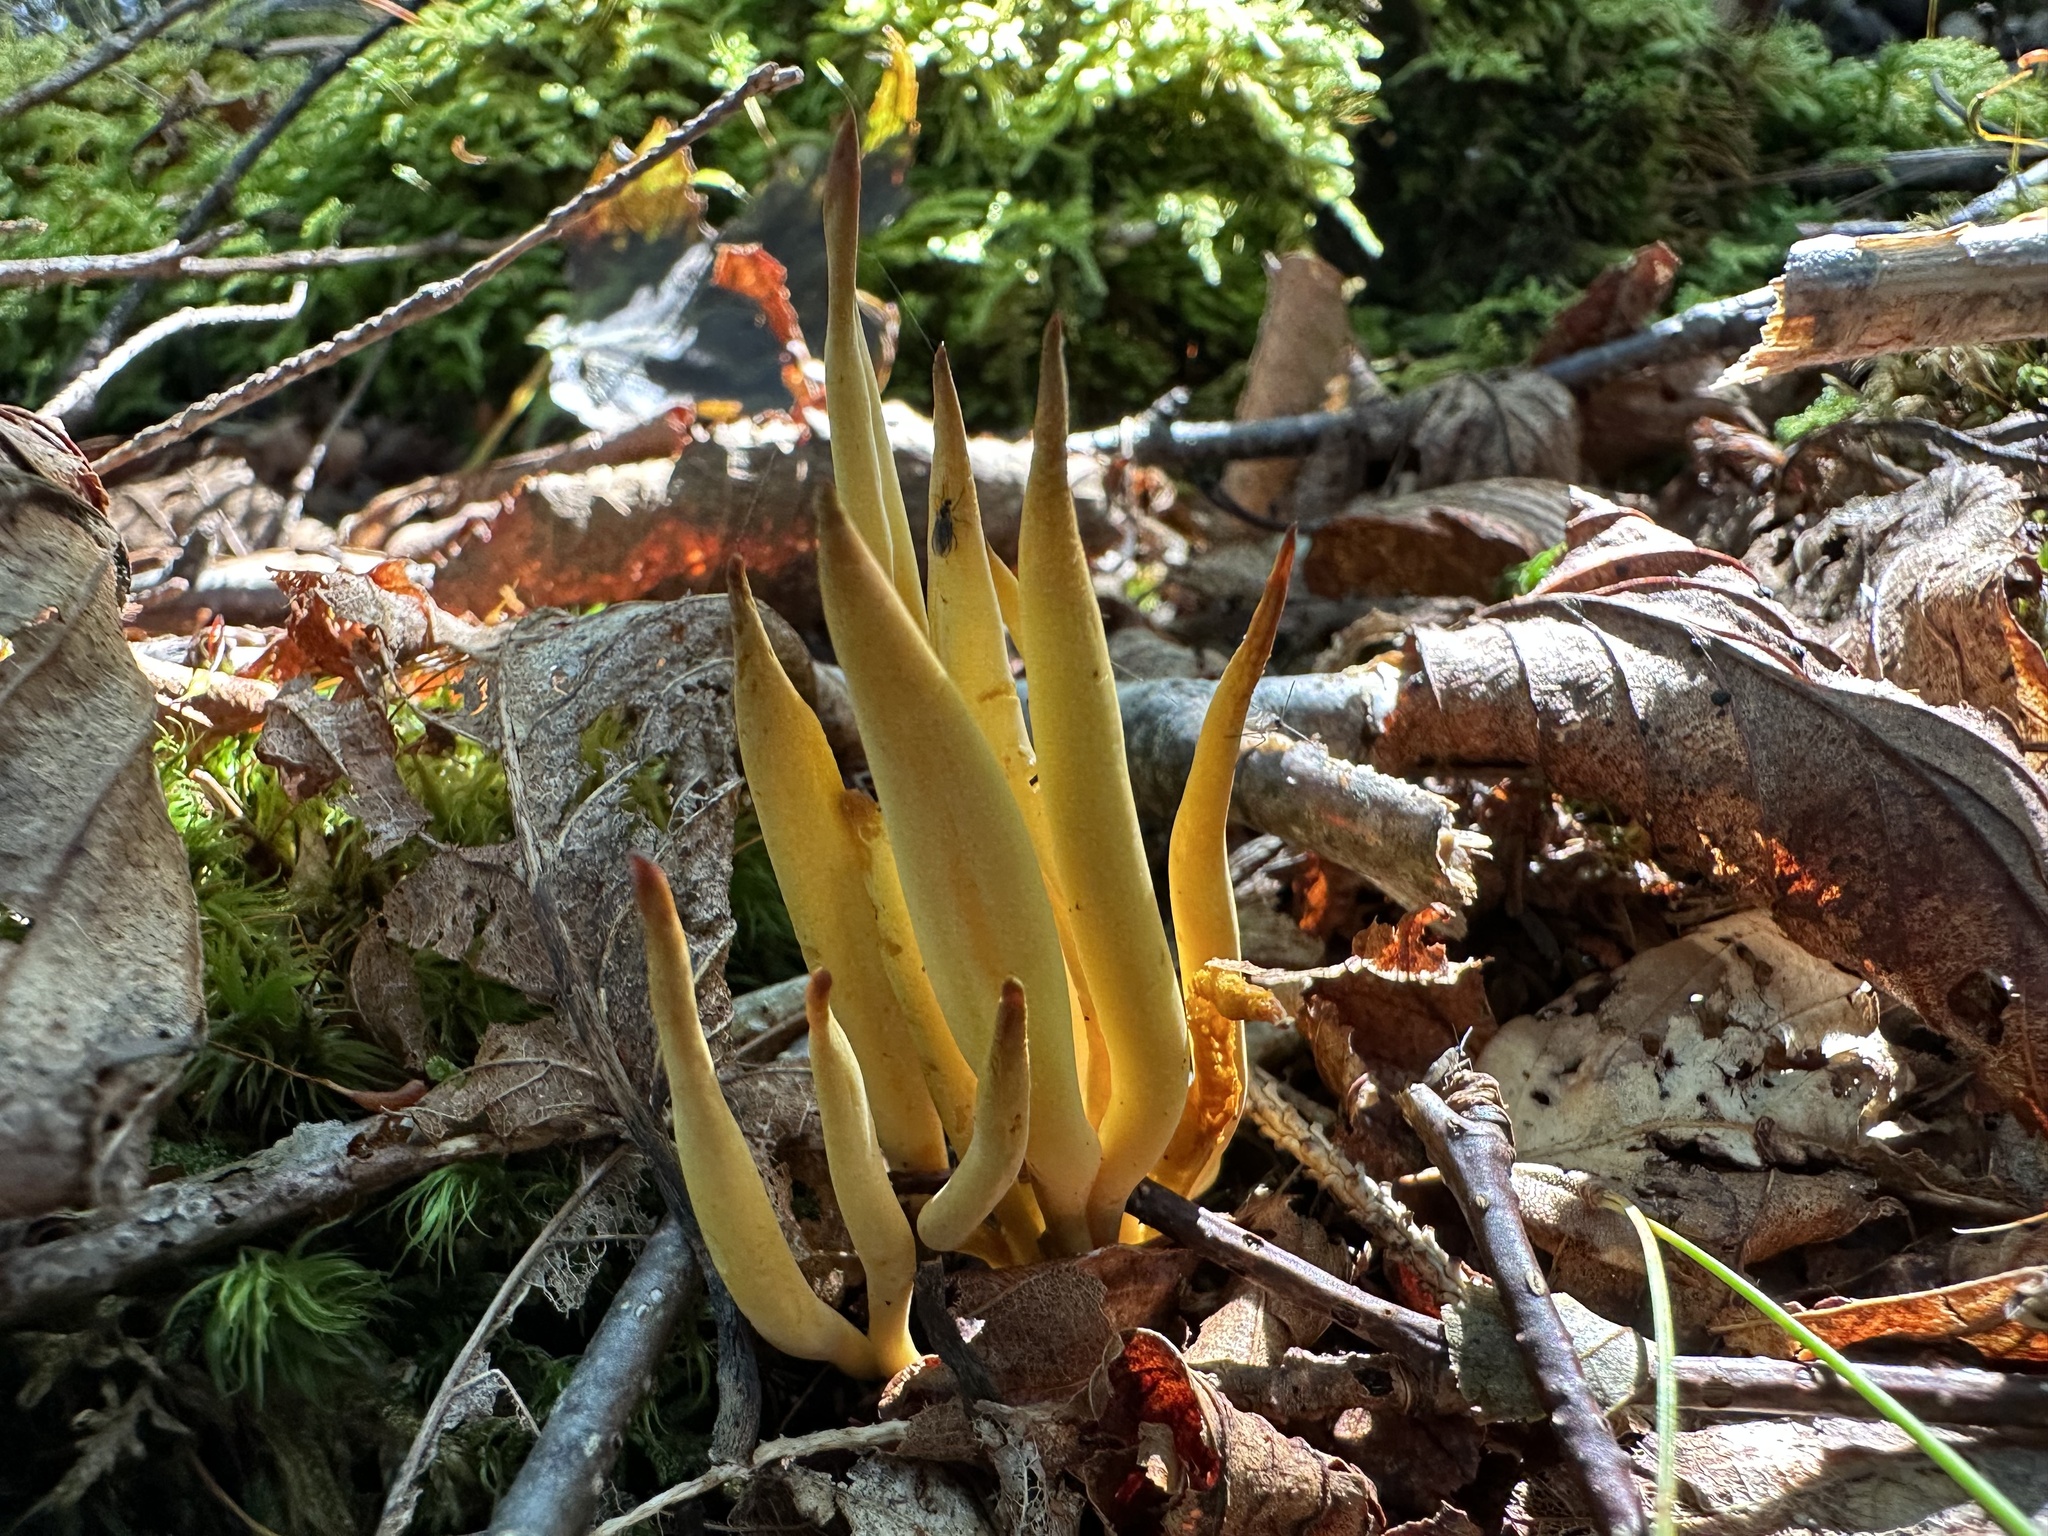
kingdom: Fungi
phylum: Basidiomycota
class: Agaricomycetes
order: Agaricales
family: Clavariaceae
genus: Clavulinopsis
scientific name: Clavulinopsis fusiformis
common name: Golden spindles
